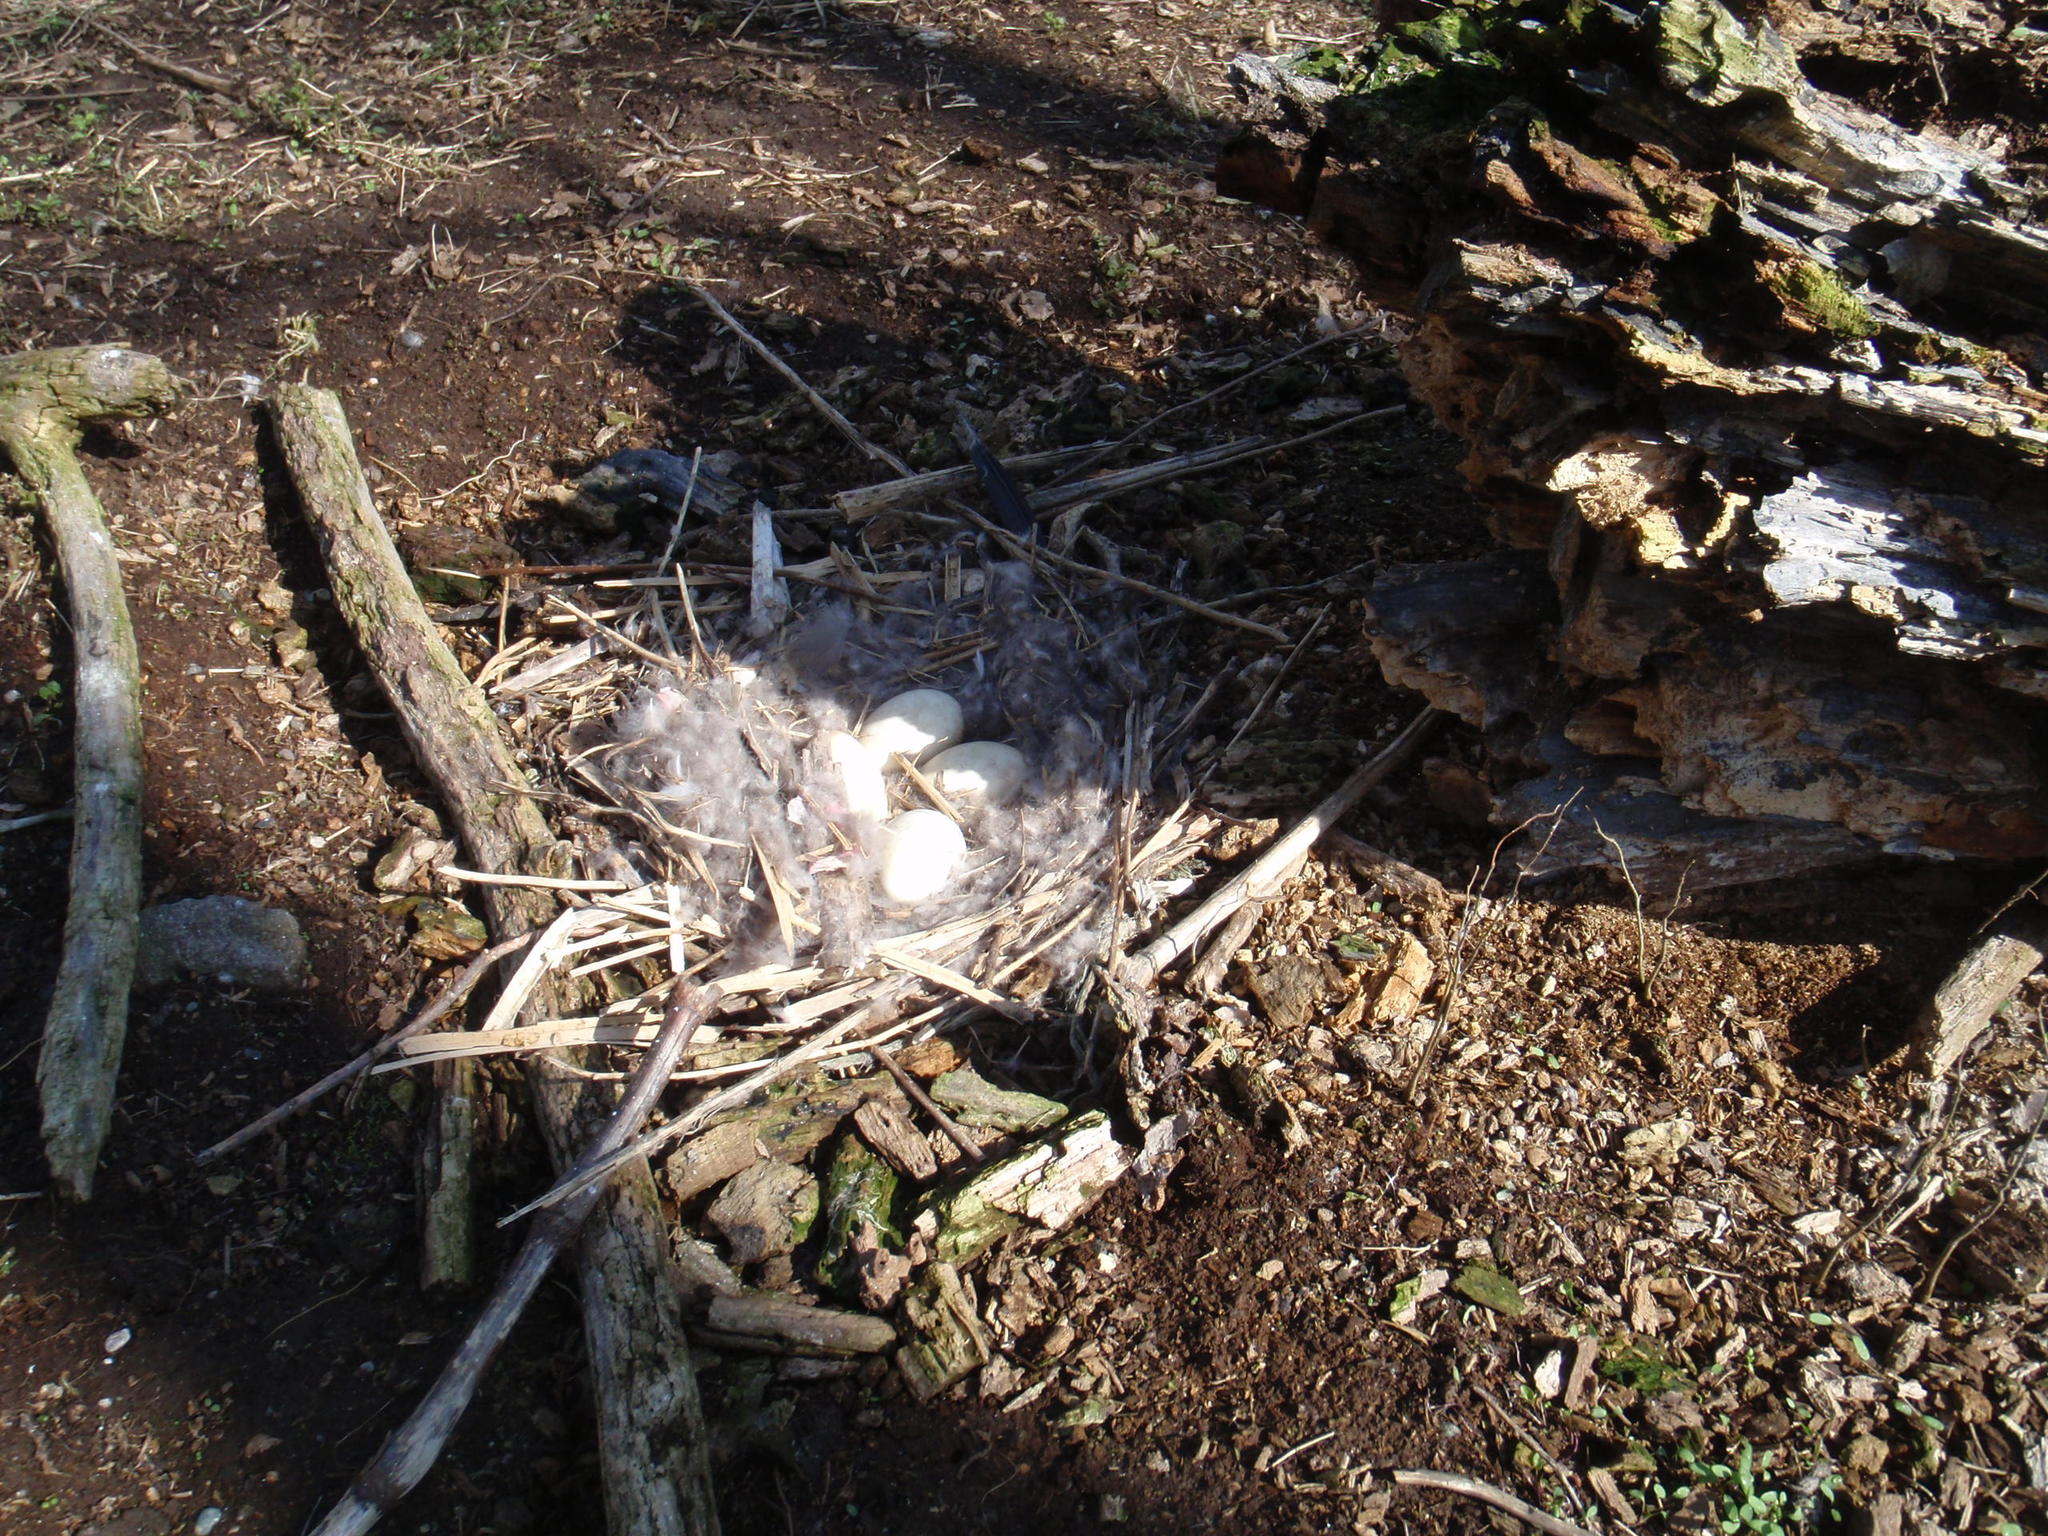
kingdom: Animalia
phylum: Chordata
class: Aves
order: Anseriformes
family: Anatidae
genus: Branta
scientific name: Branta canadensis
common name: Canada goose
